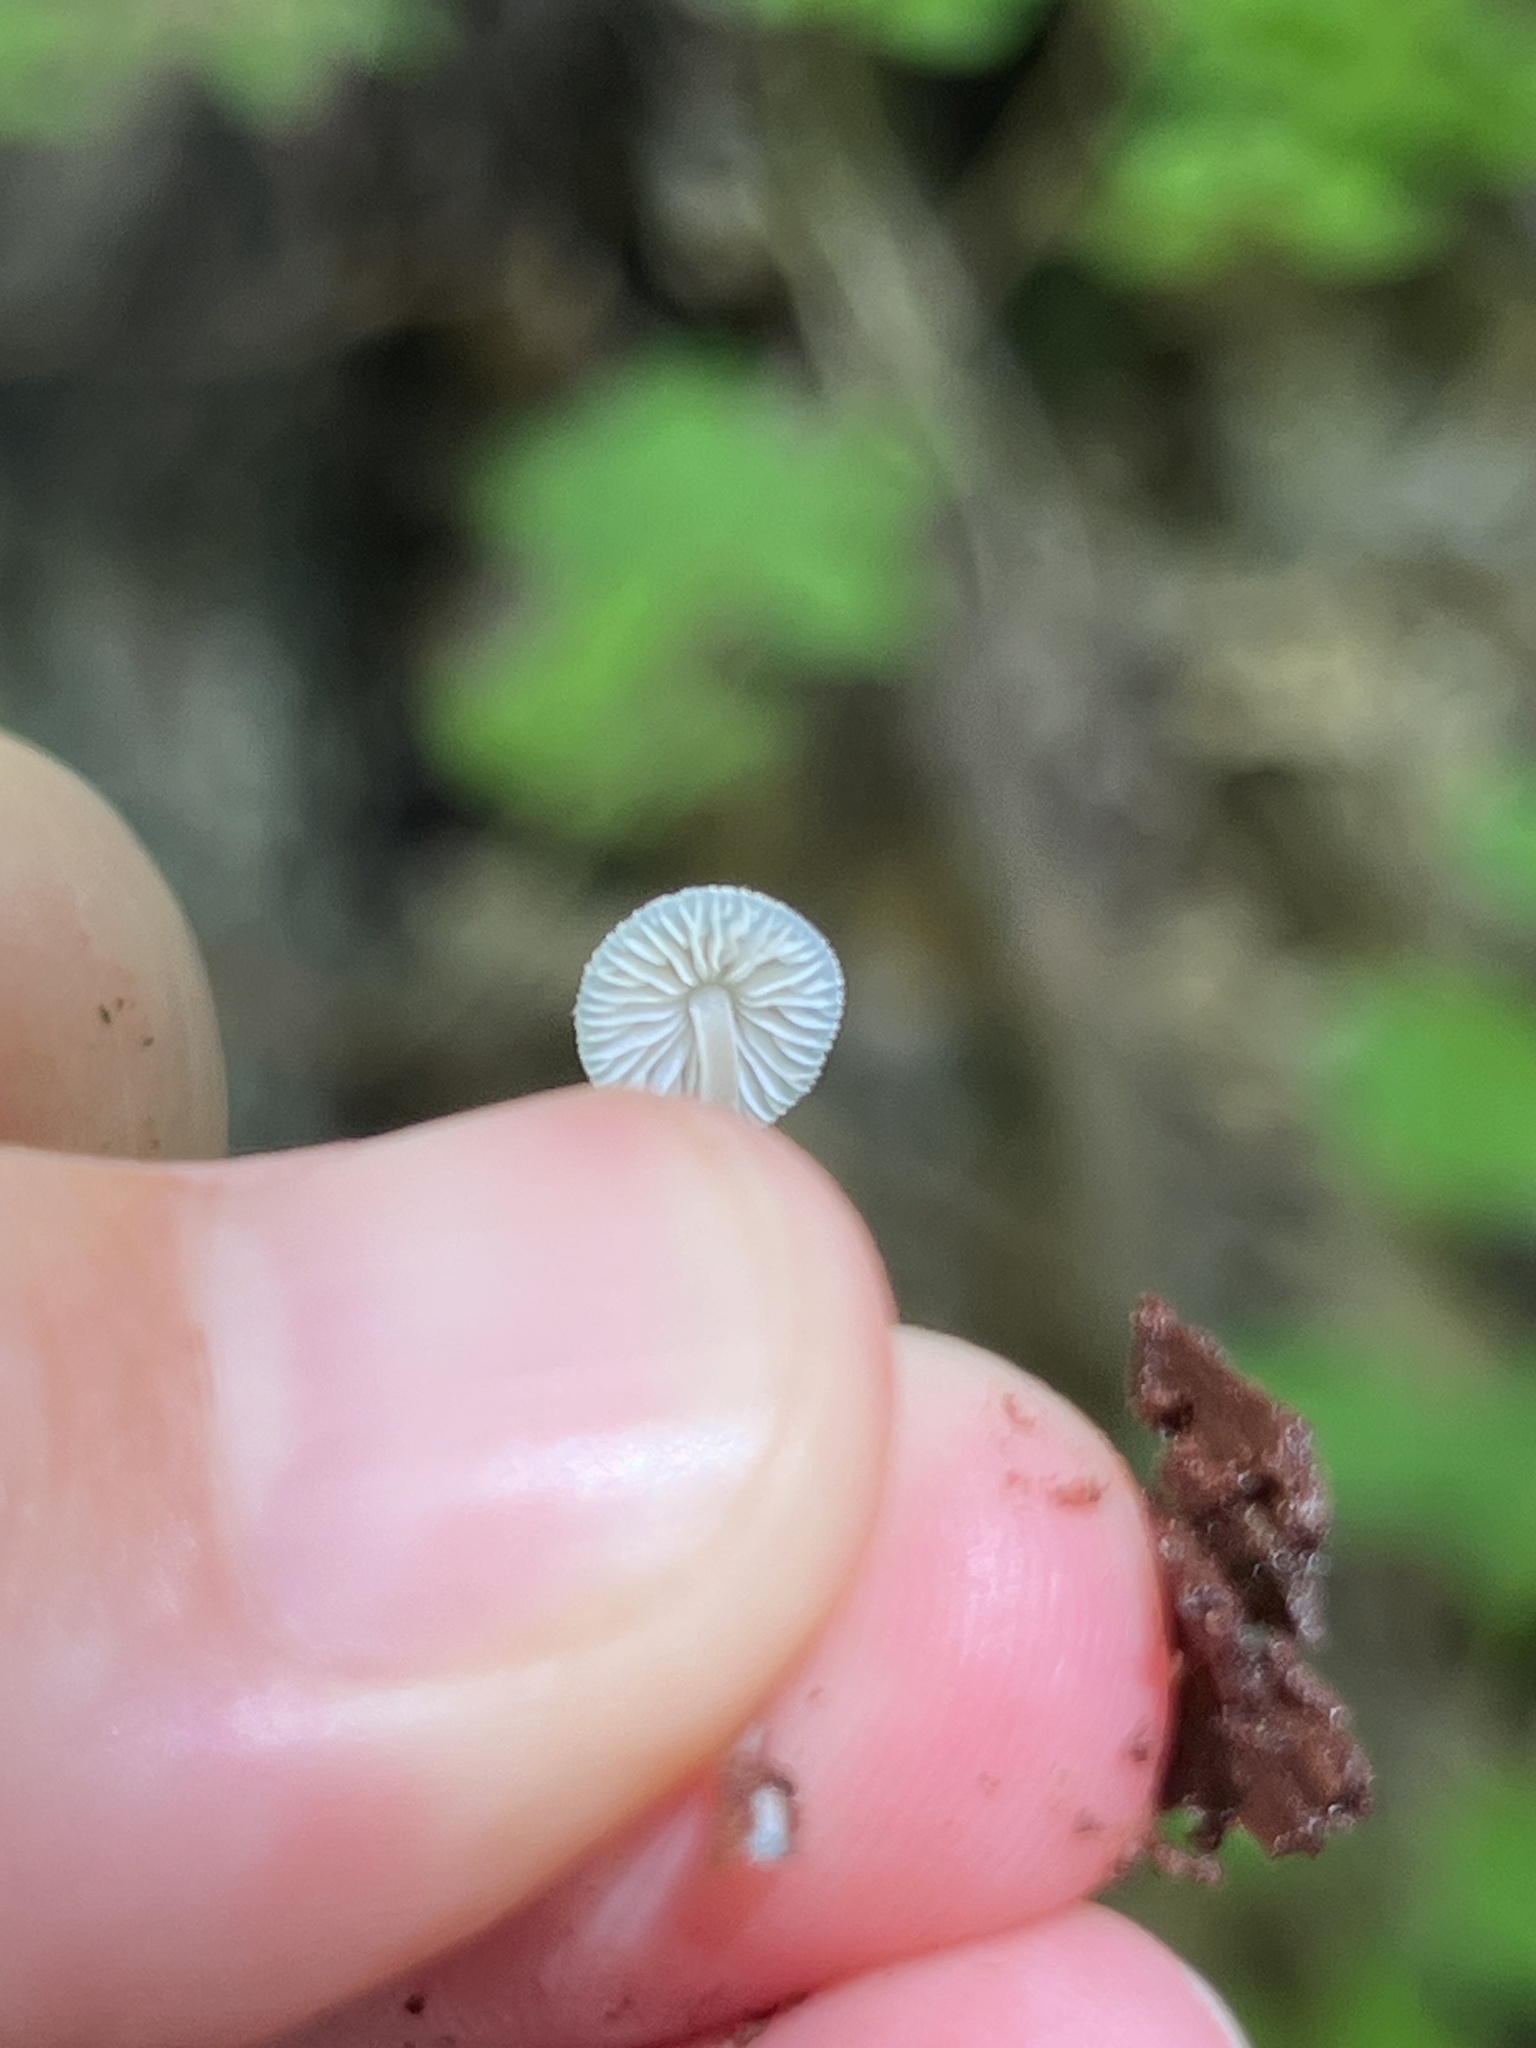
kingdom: Fungi
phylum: Basidiomycota
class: Agaricomycetes
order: Agaricales
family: Mycenaceae
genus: Mycena
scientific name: Mycena subcaerulea
